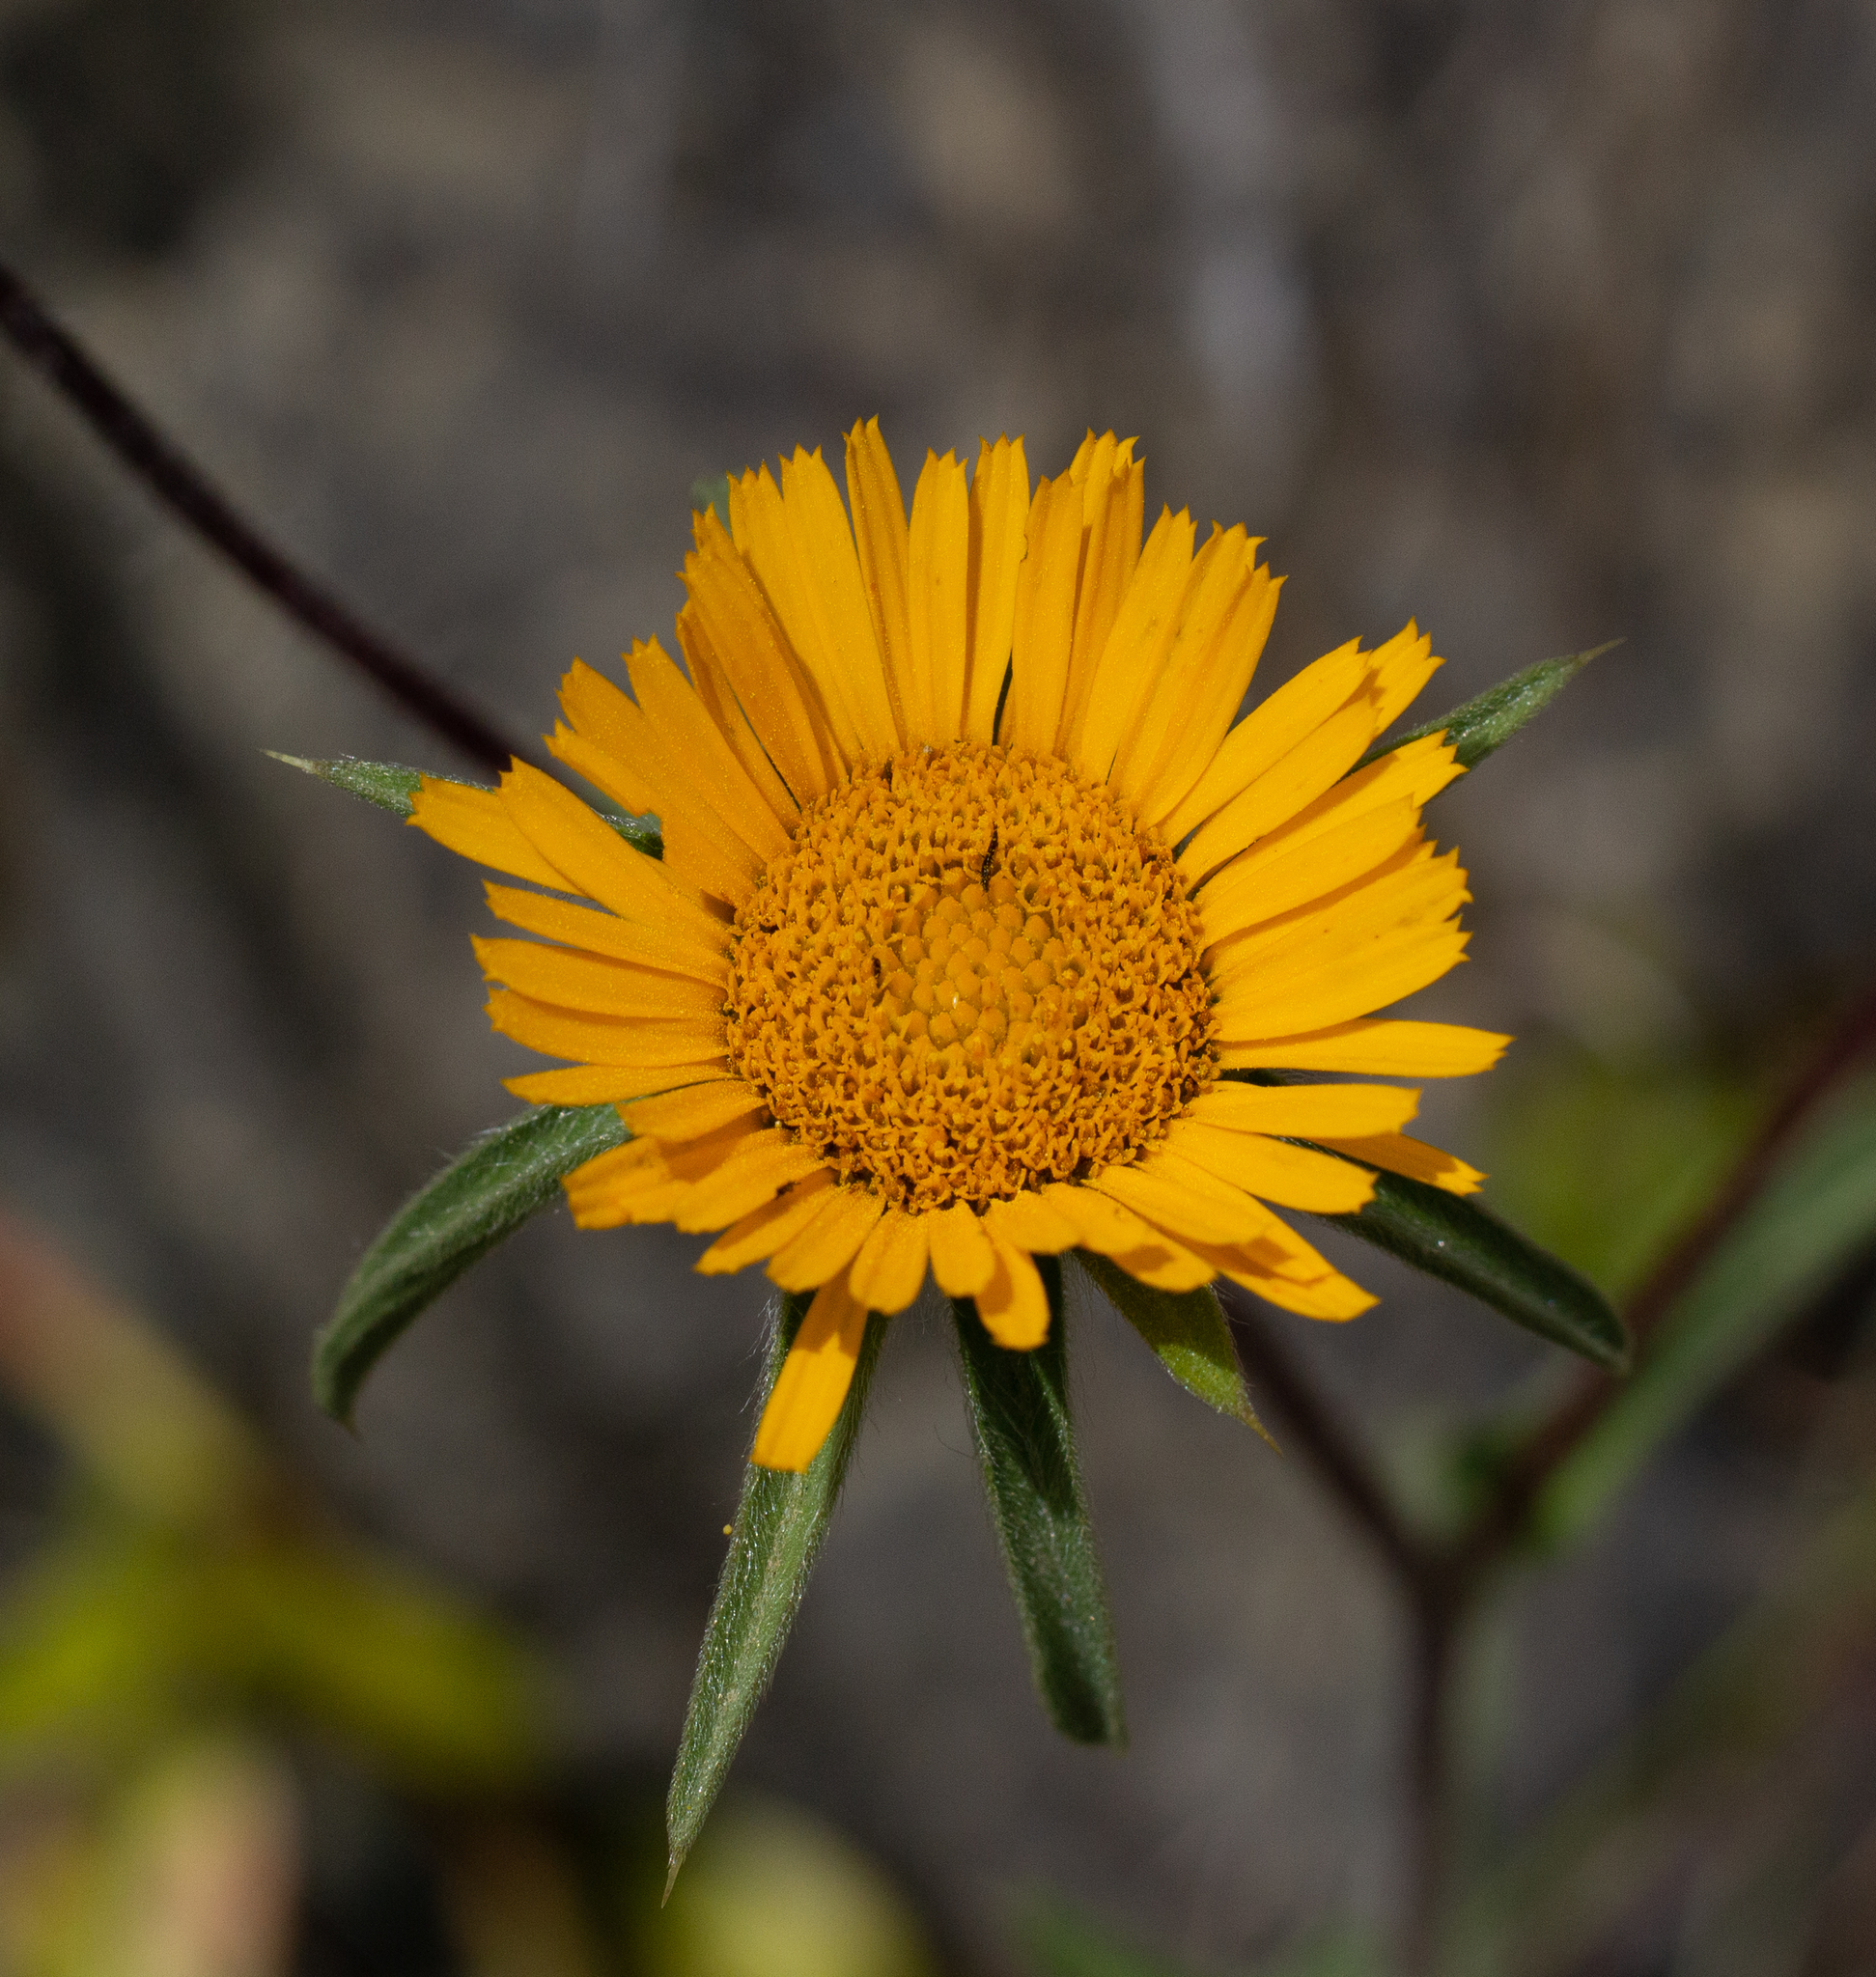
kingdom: Plantae
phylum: Tracheophyta
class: Magnoliopsida
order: Asterales
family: Asteraceae
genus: Pallenis
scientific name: Pallenis spinosa
